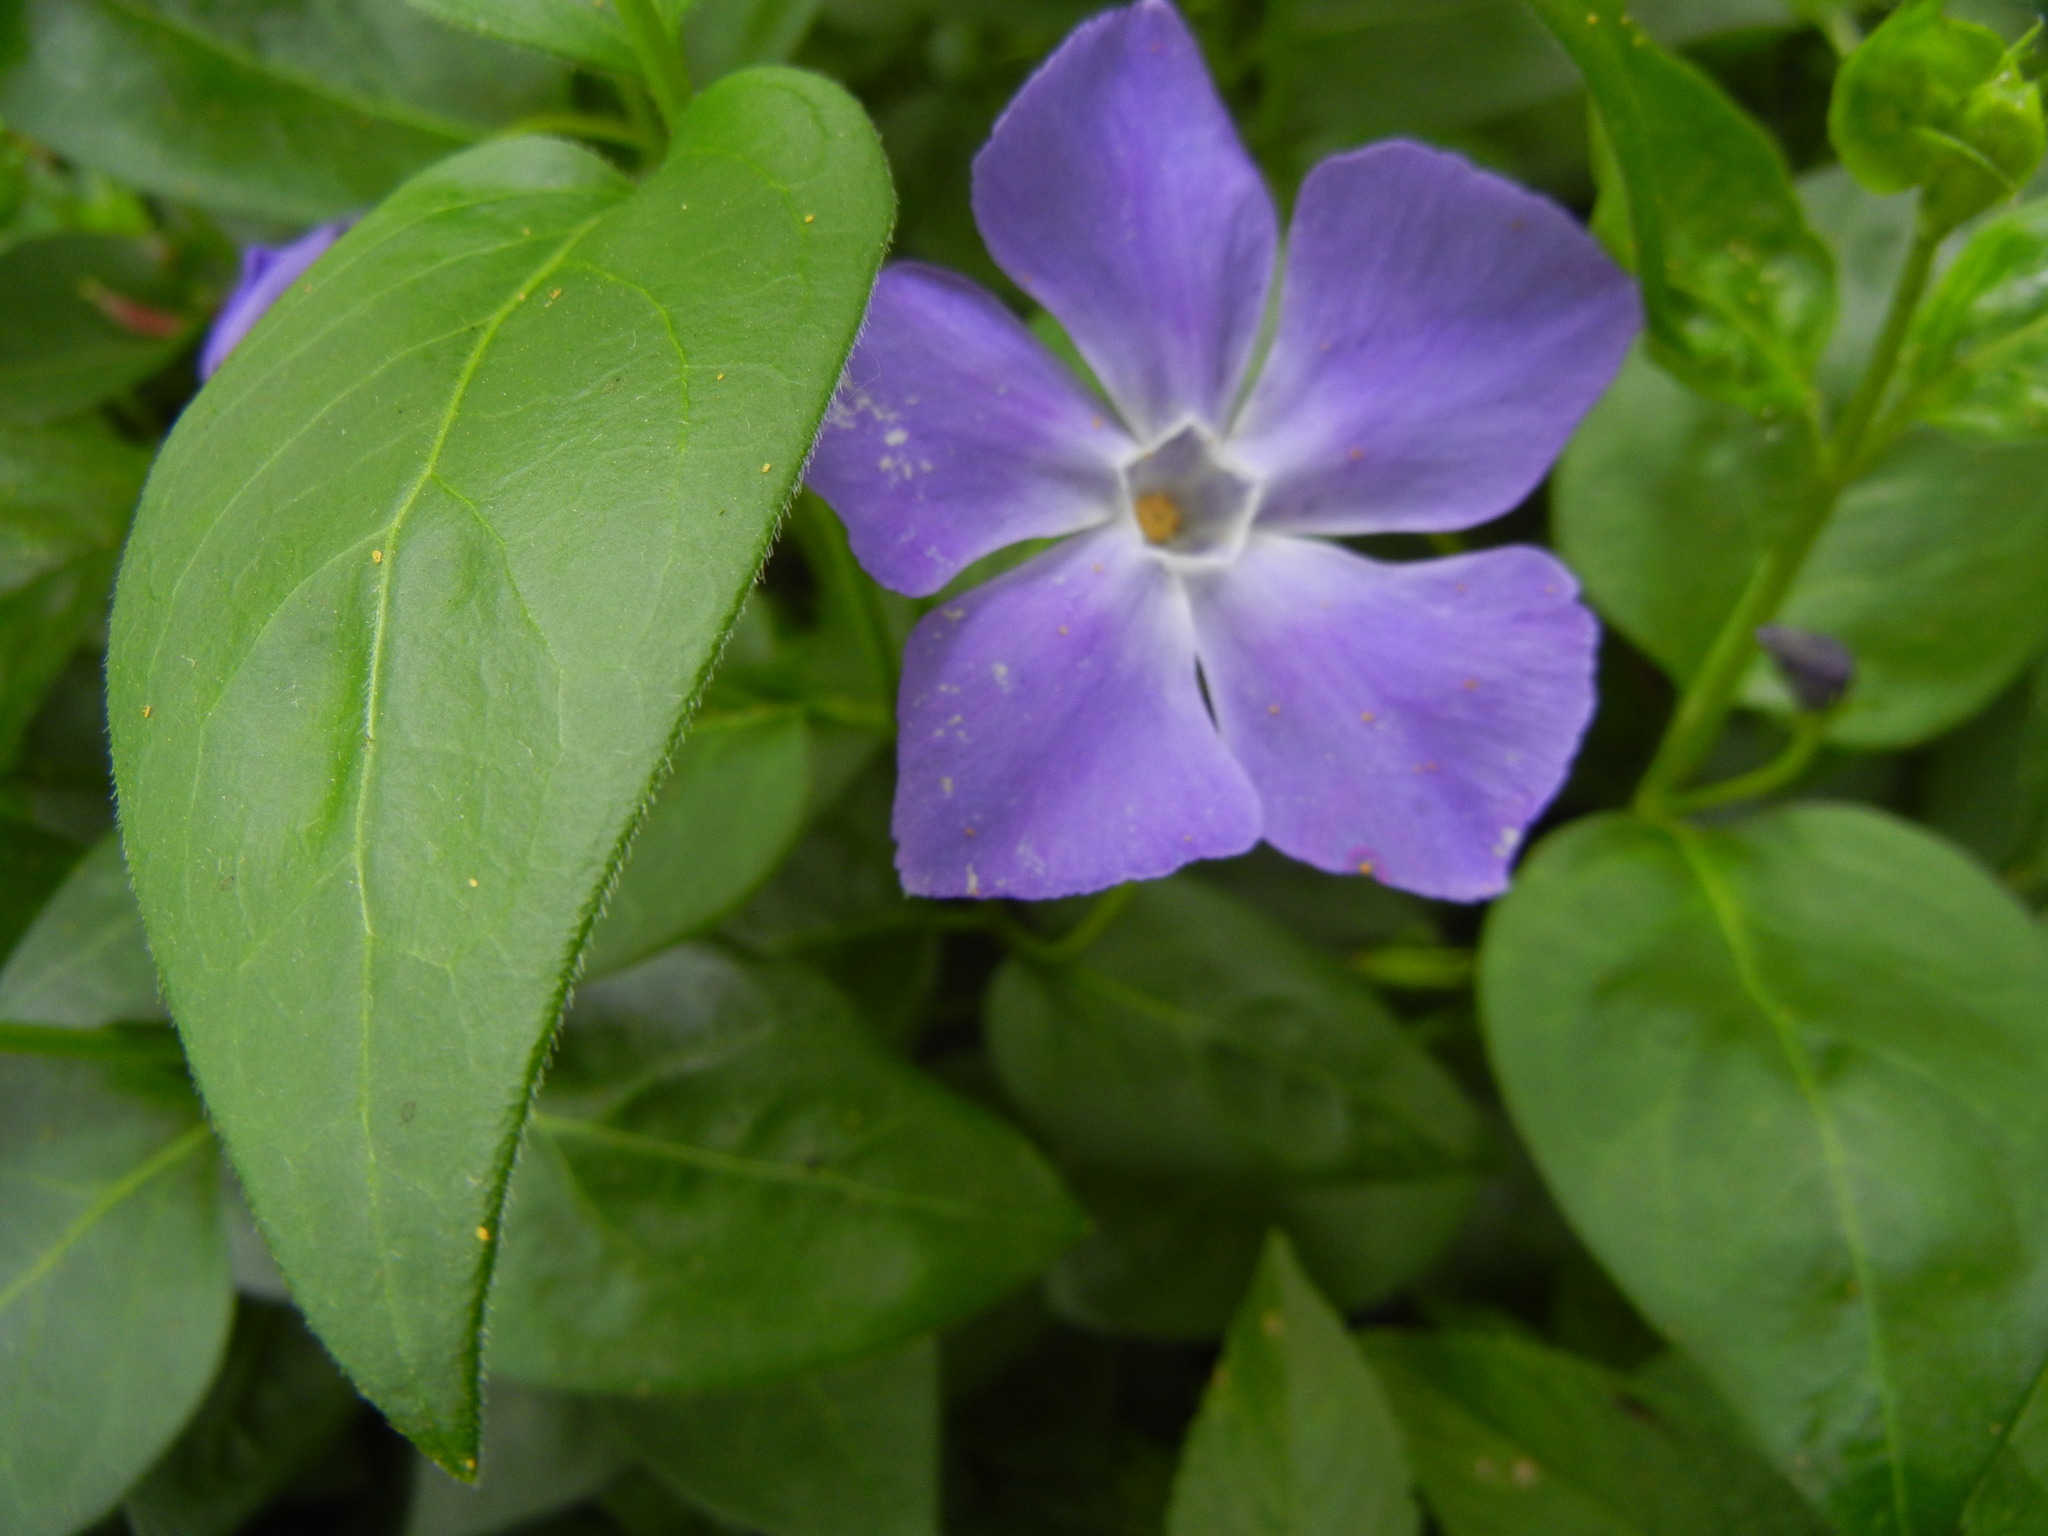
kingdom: Plantae
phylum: Tracheophyta
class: Magnoliopsida
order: Gentianales
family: Apocynaceae
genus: Vinca
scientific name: Vinca major
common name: Greater periwinkle
